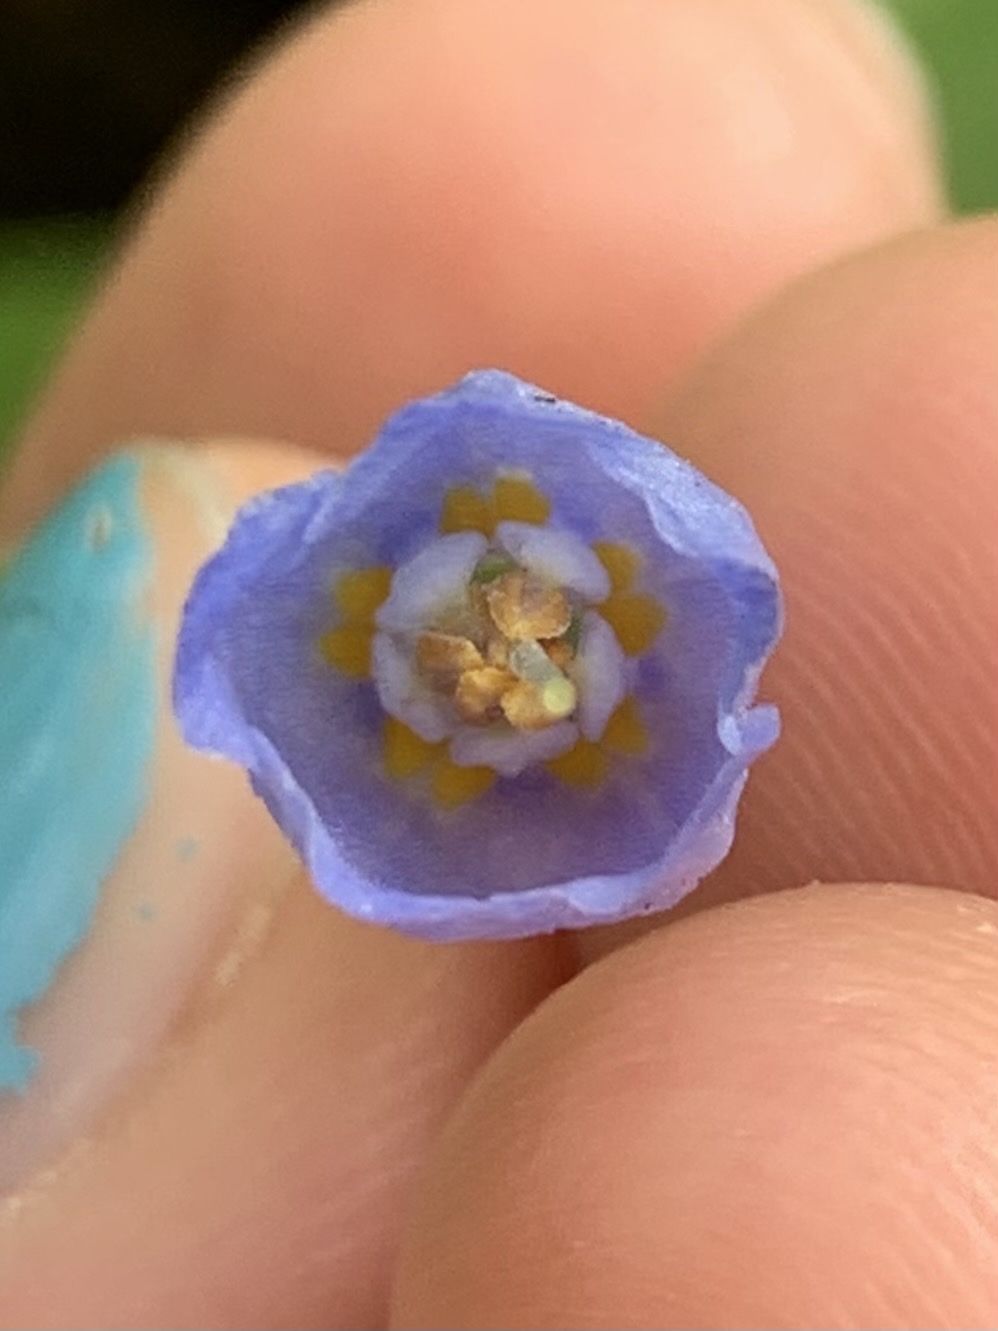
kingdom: Plantae
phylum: Tracheophyta
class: Magnoliopsida
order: Boraginales
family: Boraginaceae
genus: Mertensia
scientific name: Mertensia subcordata
